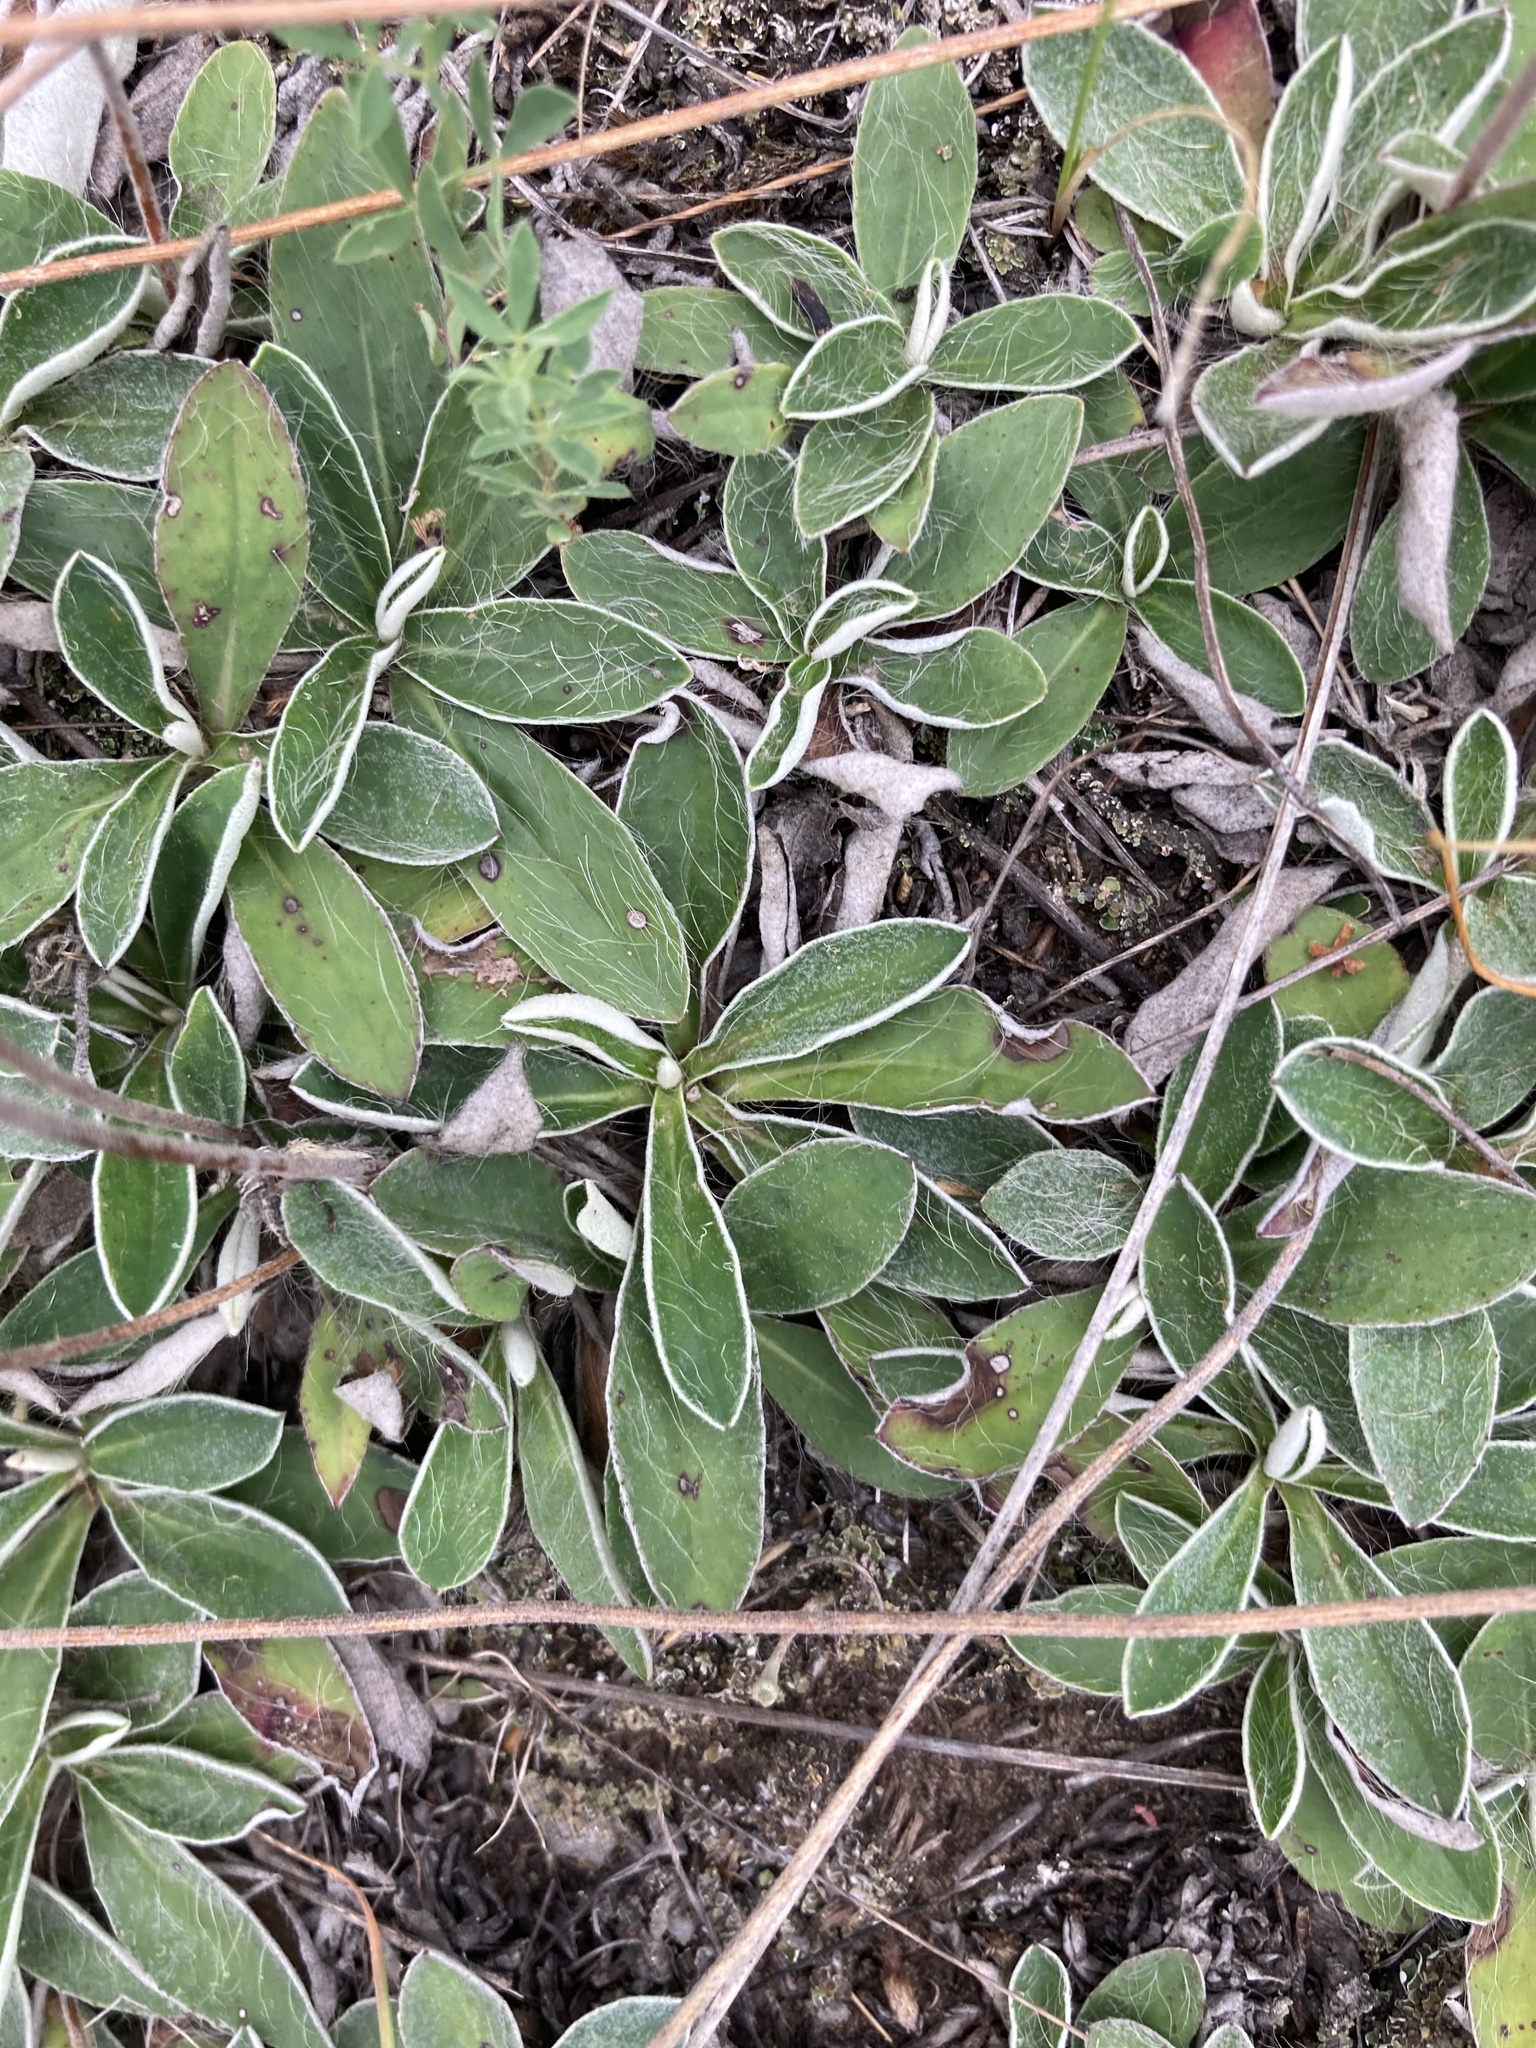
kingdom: Plantae
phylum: Tracheophyta
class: Magnoliopsida
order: Asterales
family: Asteraceae
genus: Pilosella
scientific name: Pilosella officinarum
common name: Mouse-ear hawkweed
